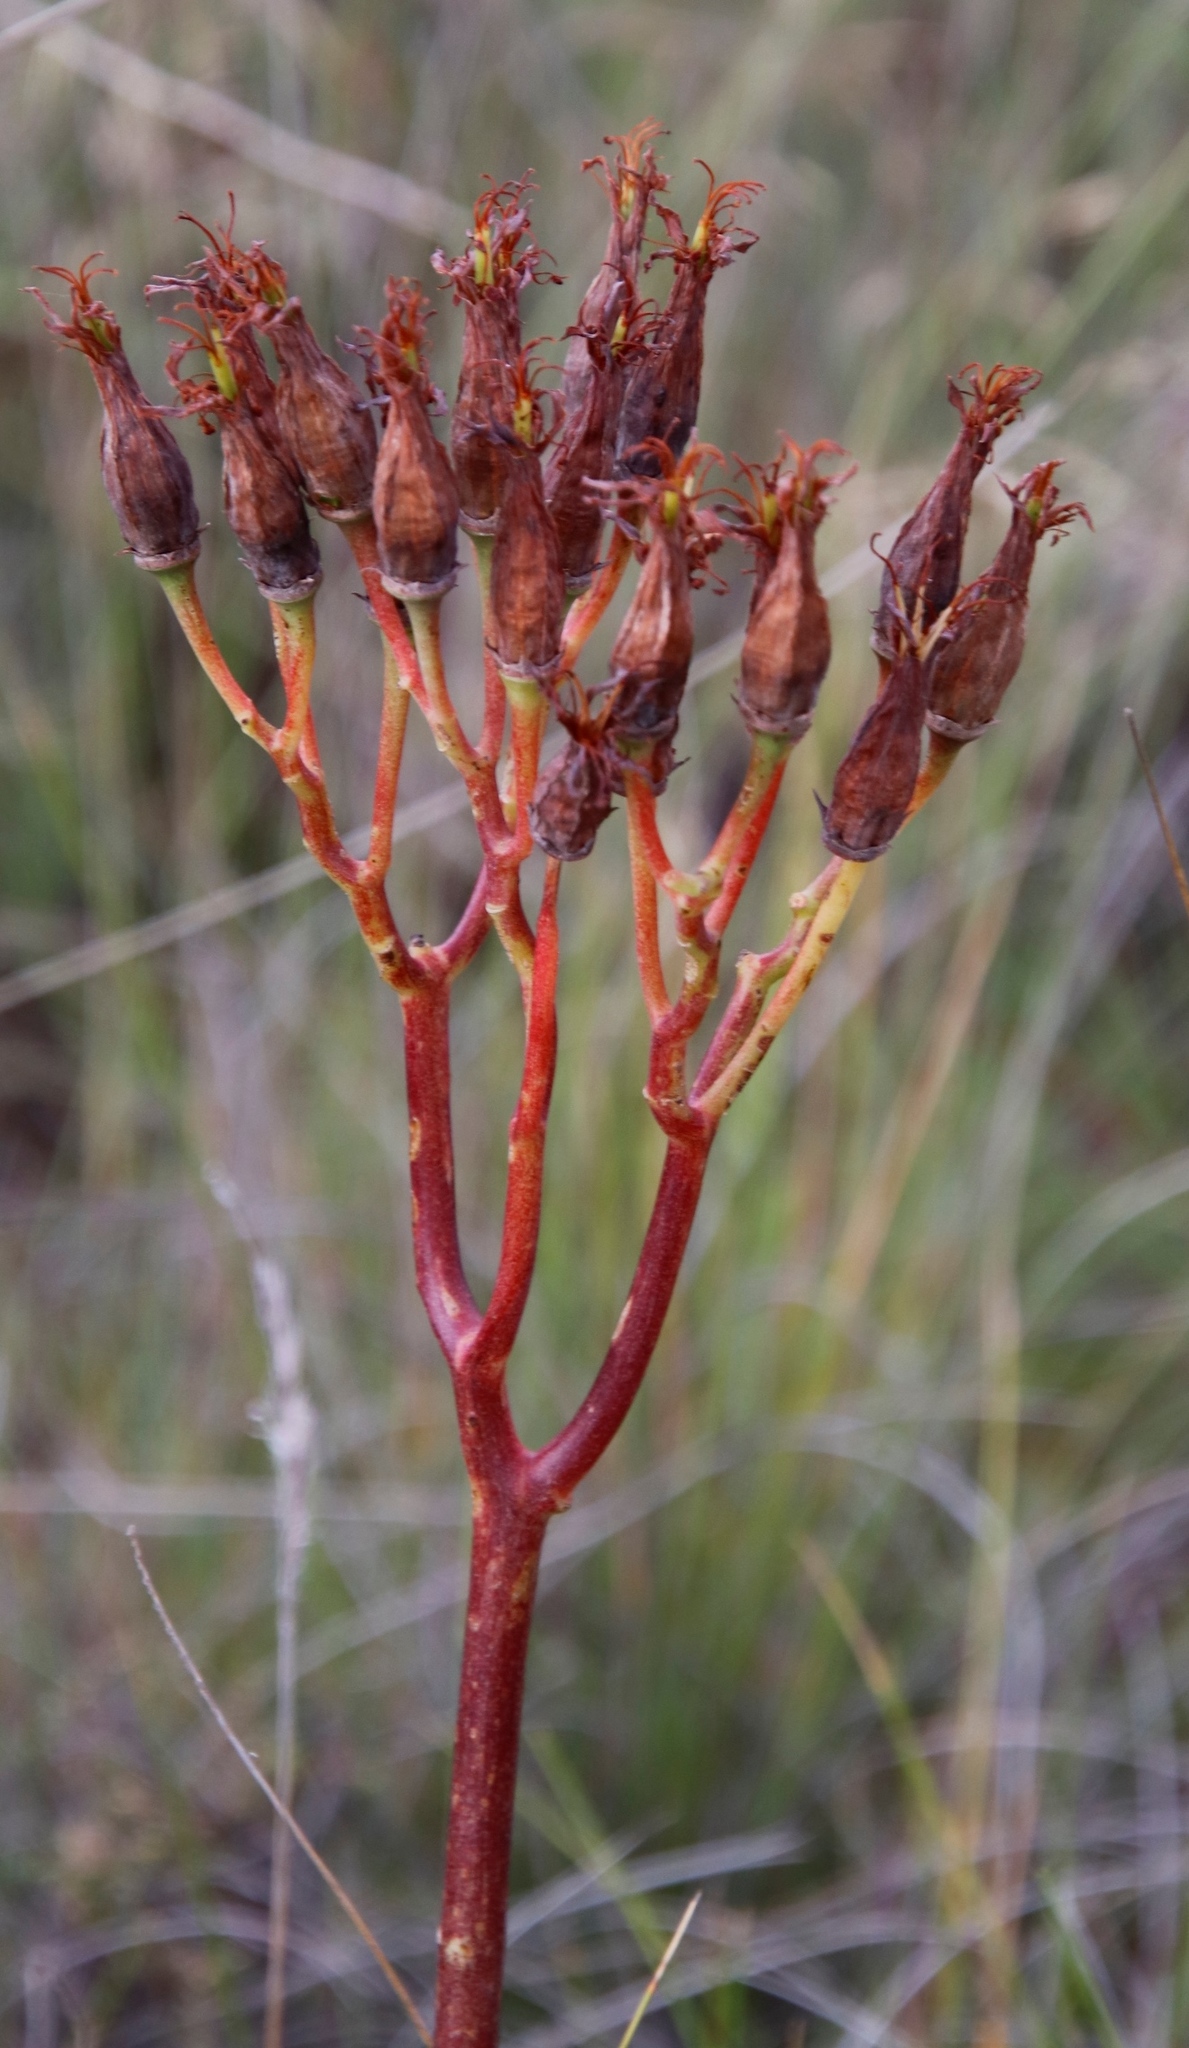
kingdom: Plantae
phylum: Tracheophyta
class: Magnoliopsida
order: Saxifragales
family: Crassulaceae
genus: Cotyledon
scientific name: Cotyledon orbiculata
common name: Pig's ear
